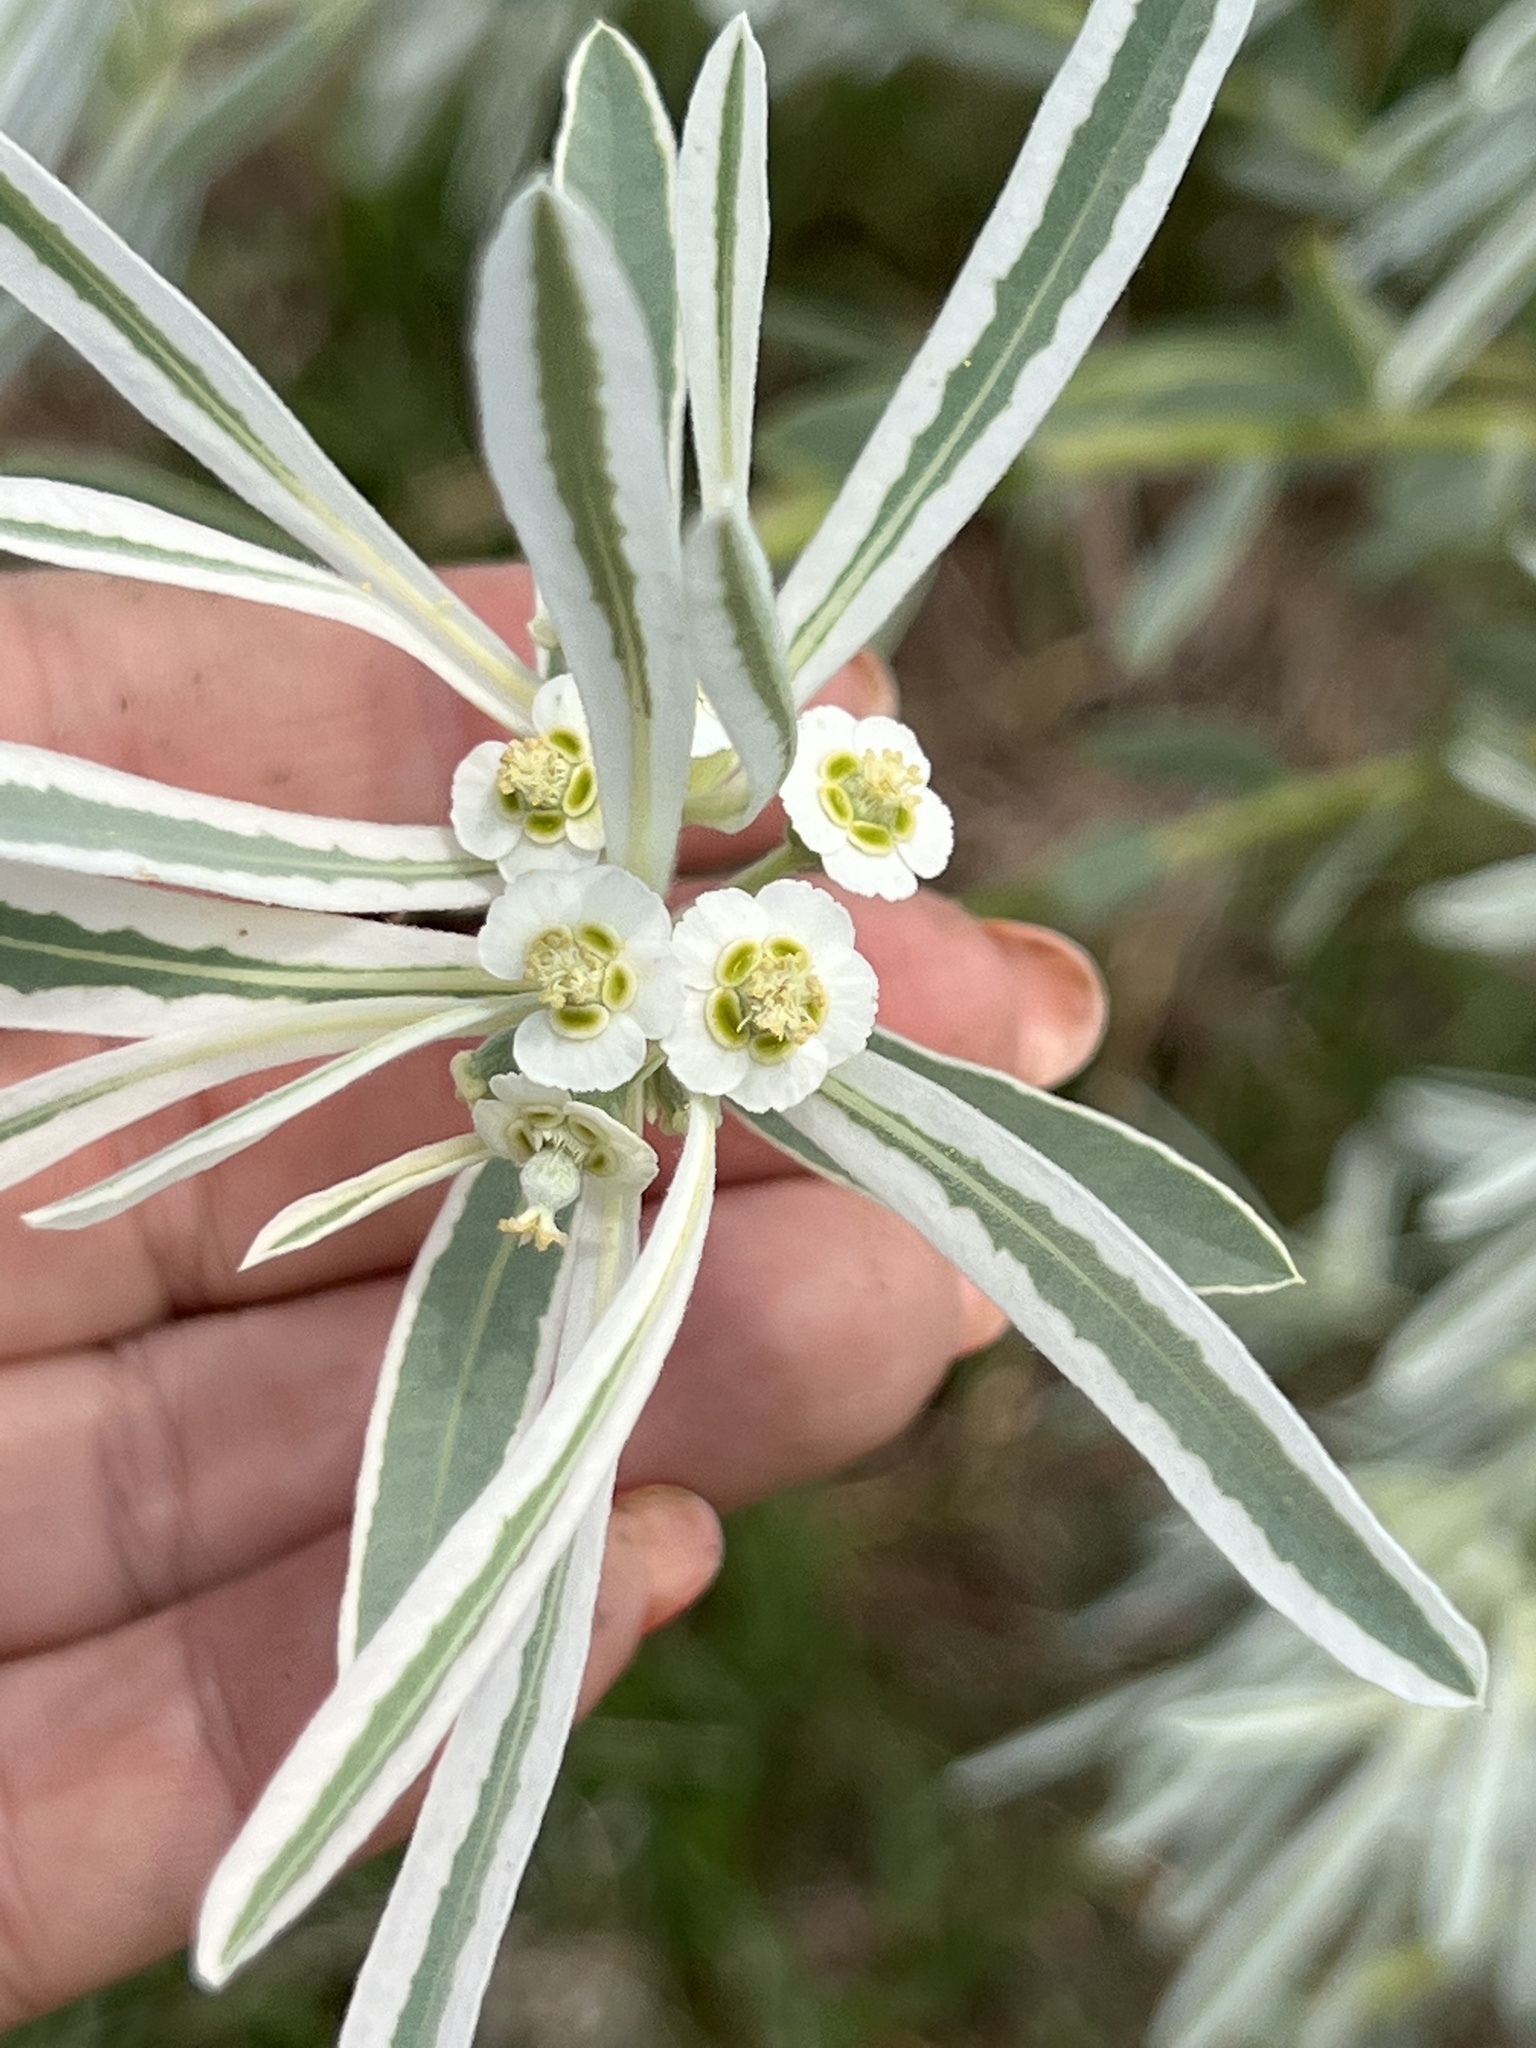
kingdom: Plantae
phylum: Tracheophyta
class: Magnoliopsida
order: Malpighiales
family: Euphorbiaceae
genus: Euphorbia
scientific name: Euphorbia bicolor
